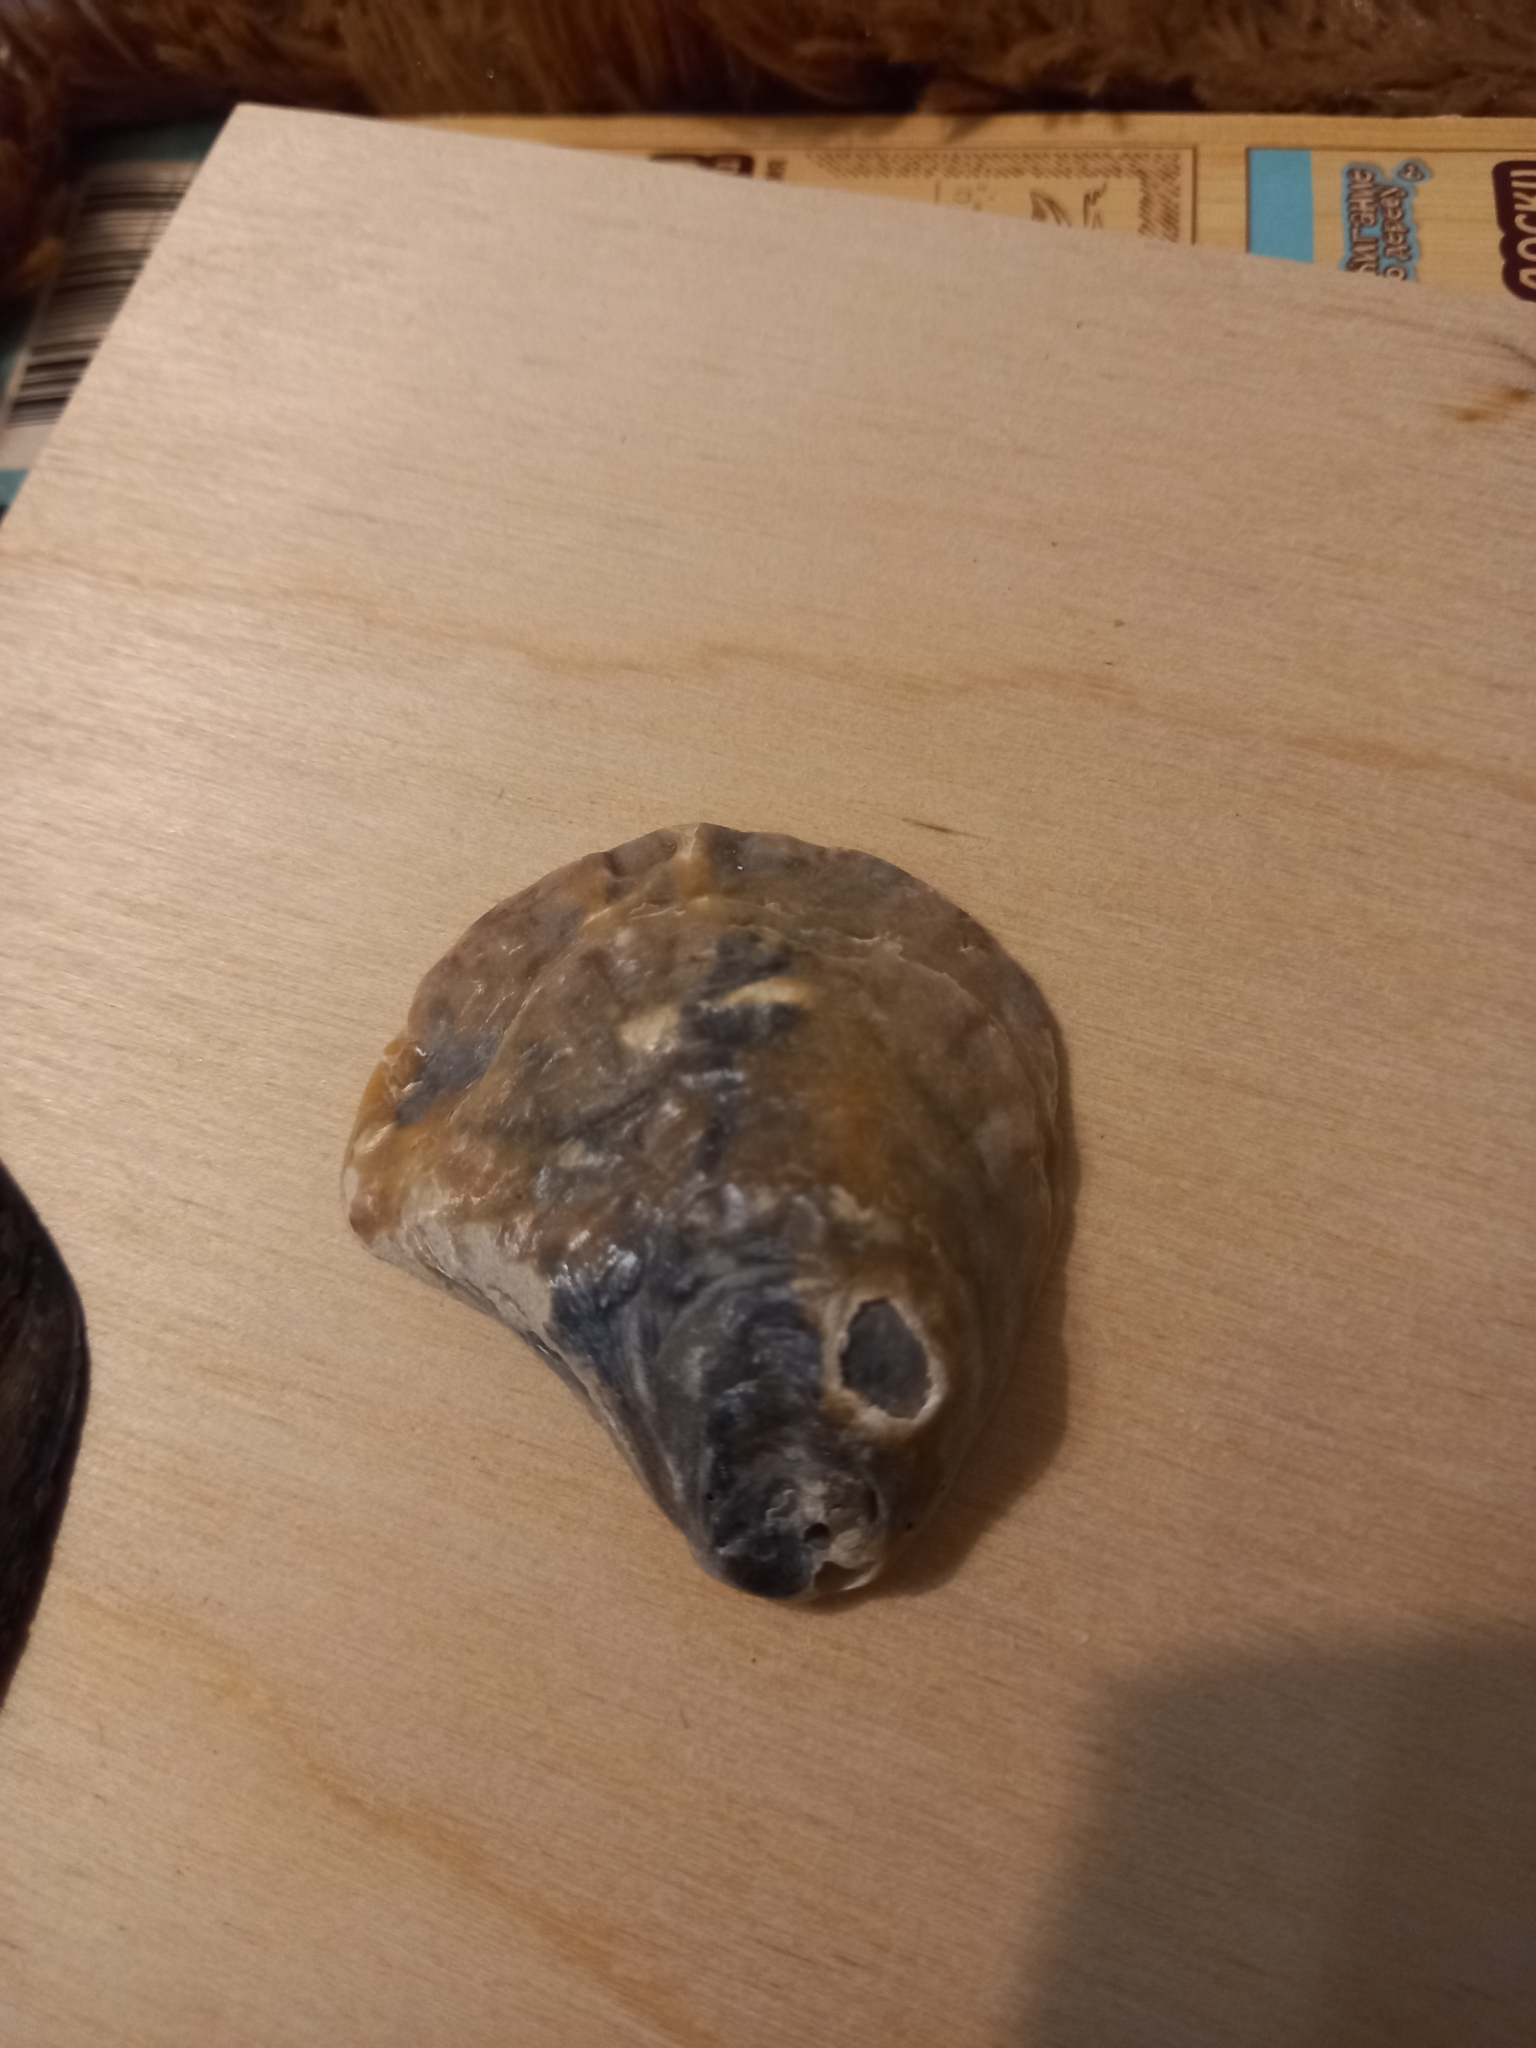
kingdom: Animalia
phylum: Mollusca
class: Bivalvia
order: Ostreida
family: Ostreidae
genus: Ostrea
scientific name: Ostrea edulis
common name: Flat oyster
